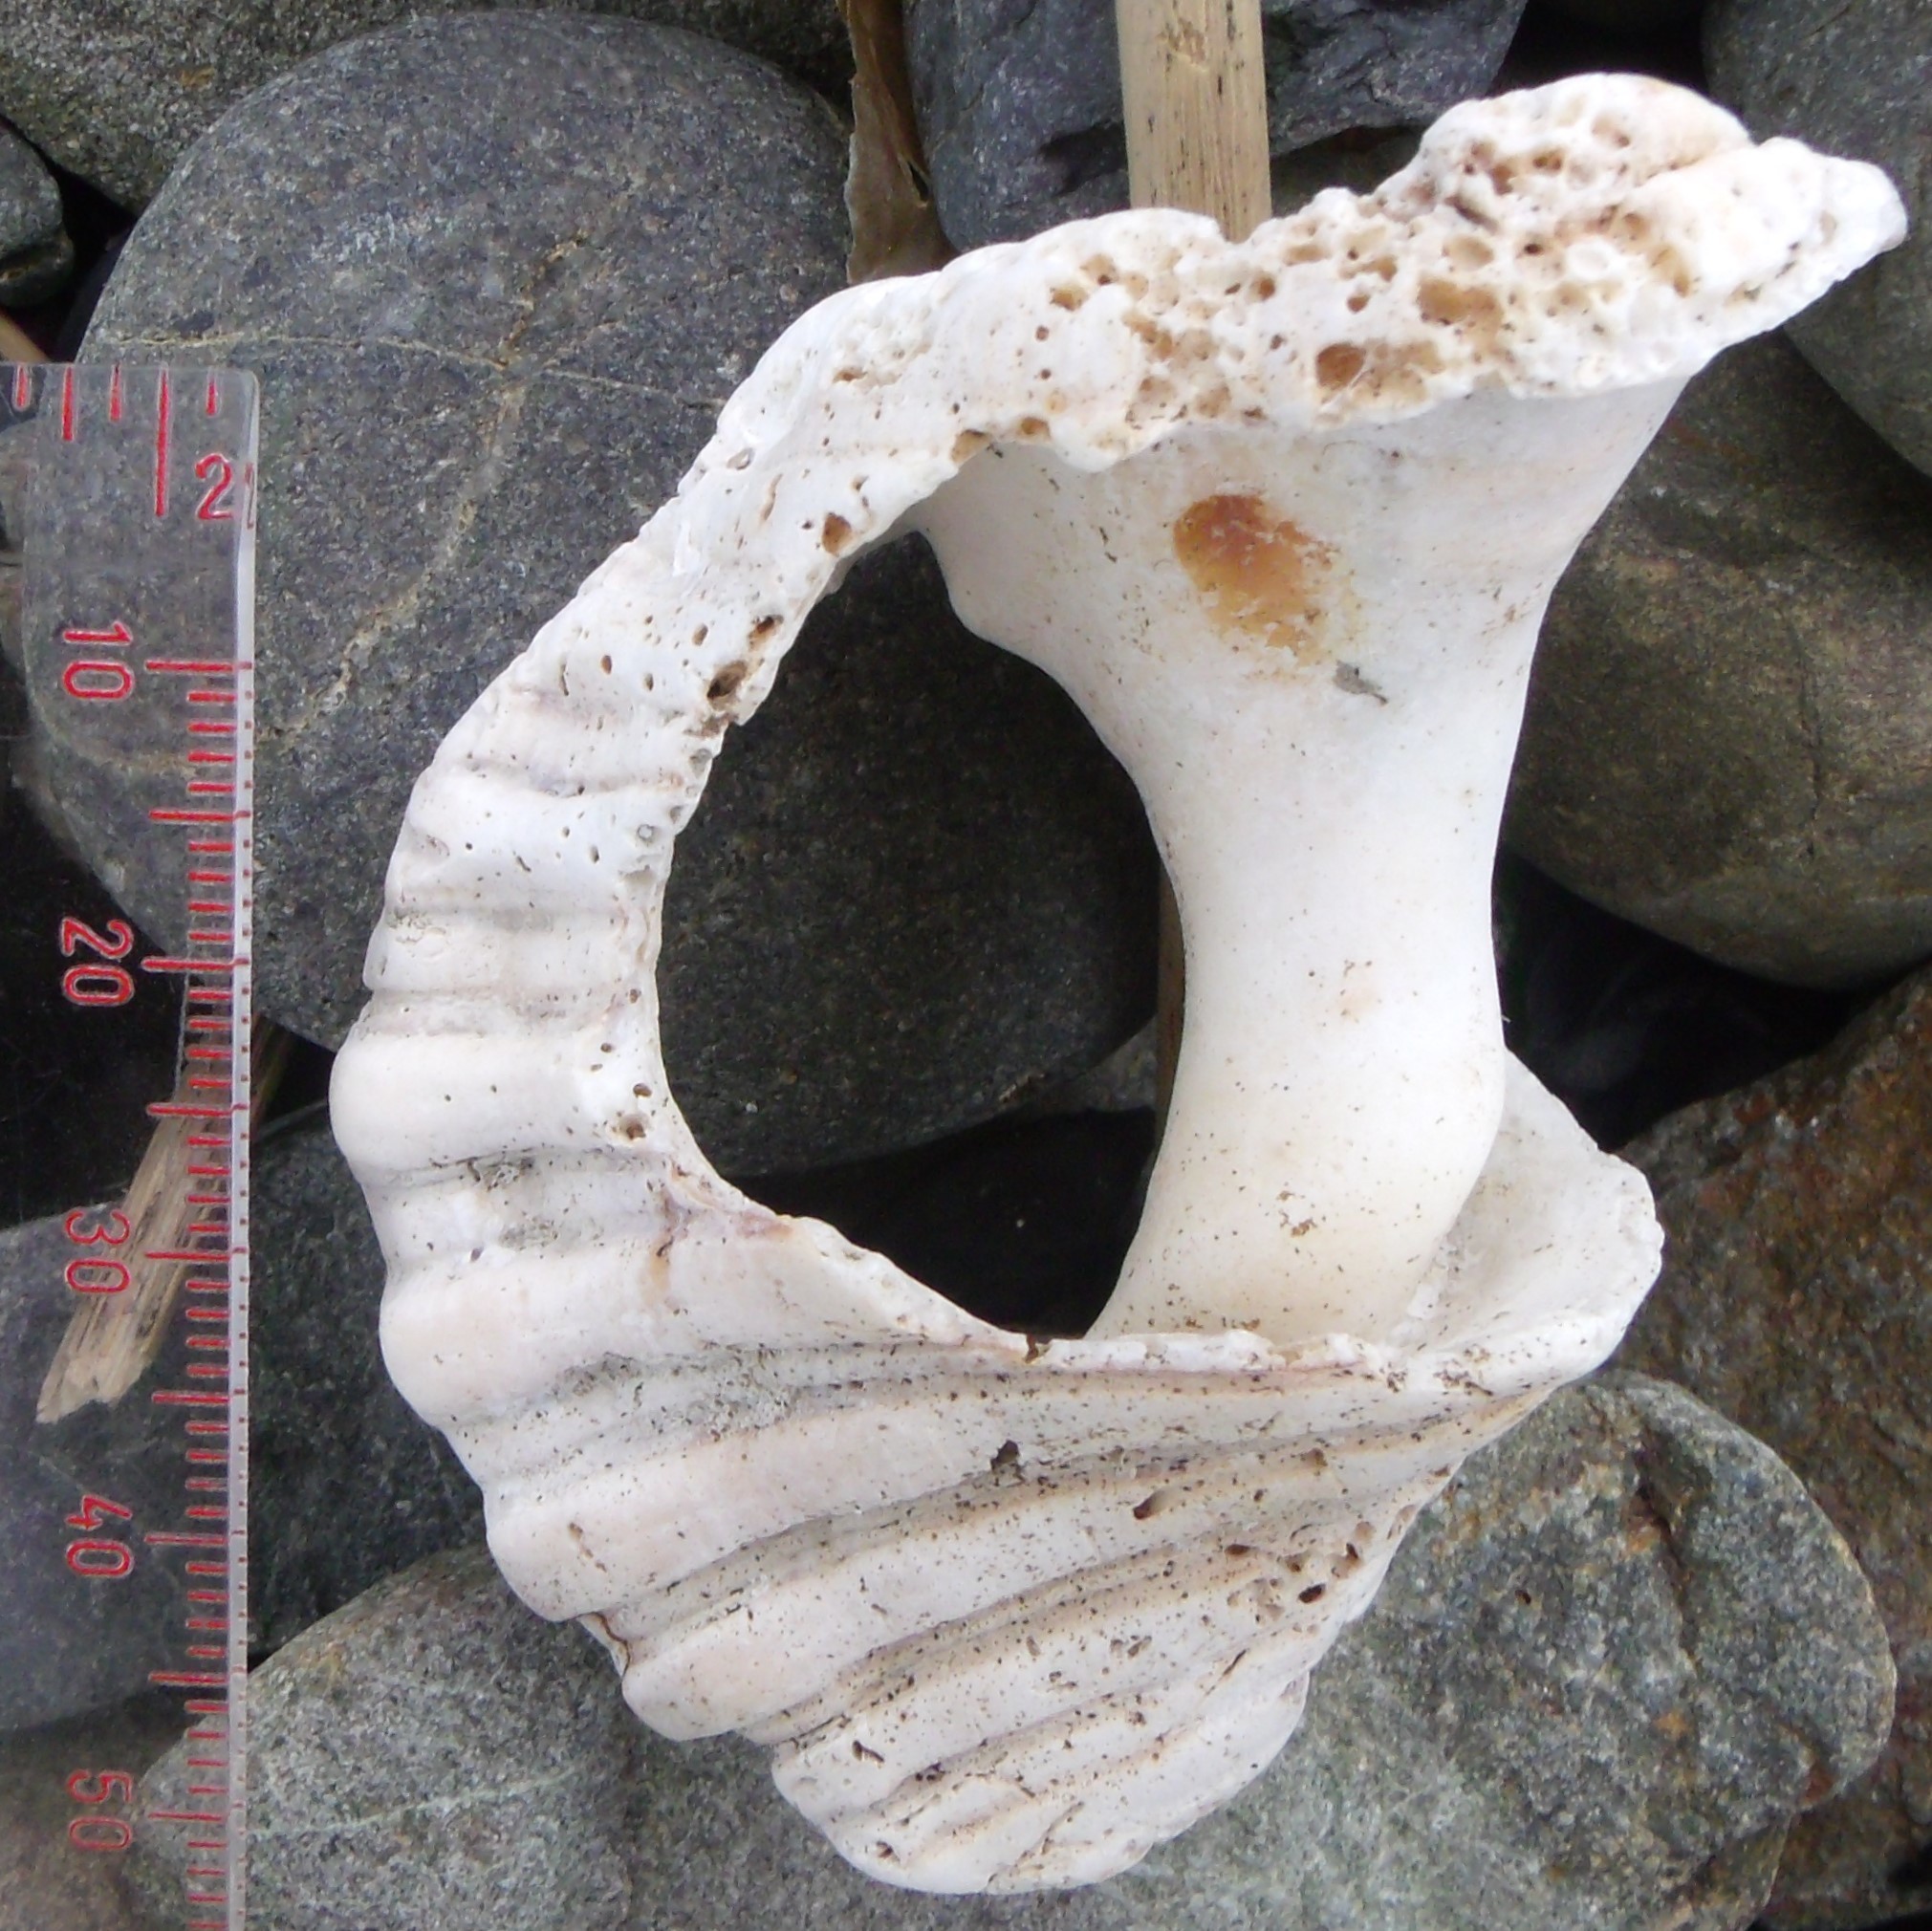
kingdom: Animalia
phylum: Mollusca
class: Gastropoda
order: Littorinimorpha
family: Cymatiidae
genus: Cabestana
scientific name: Cabestana spengleri
